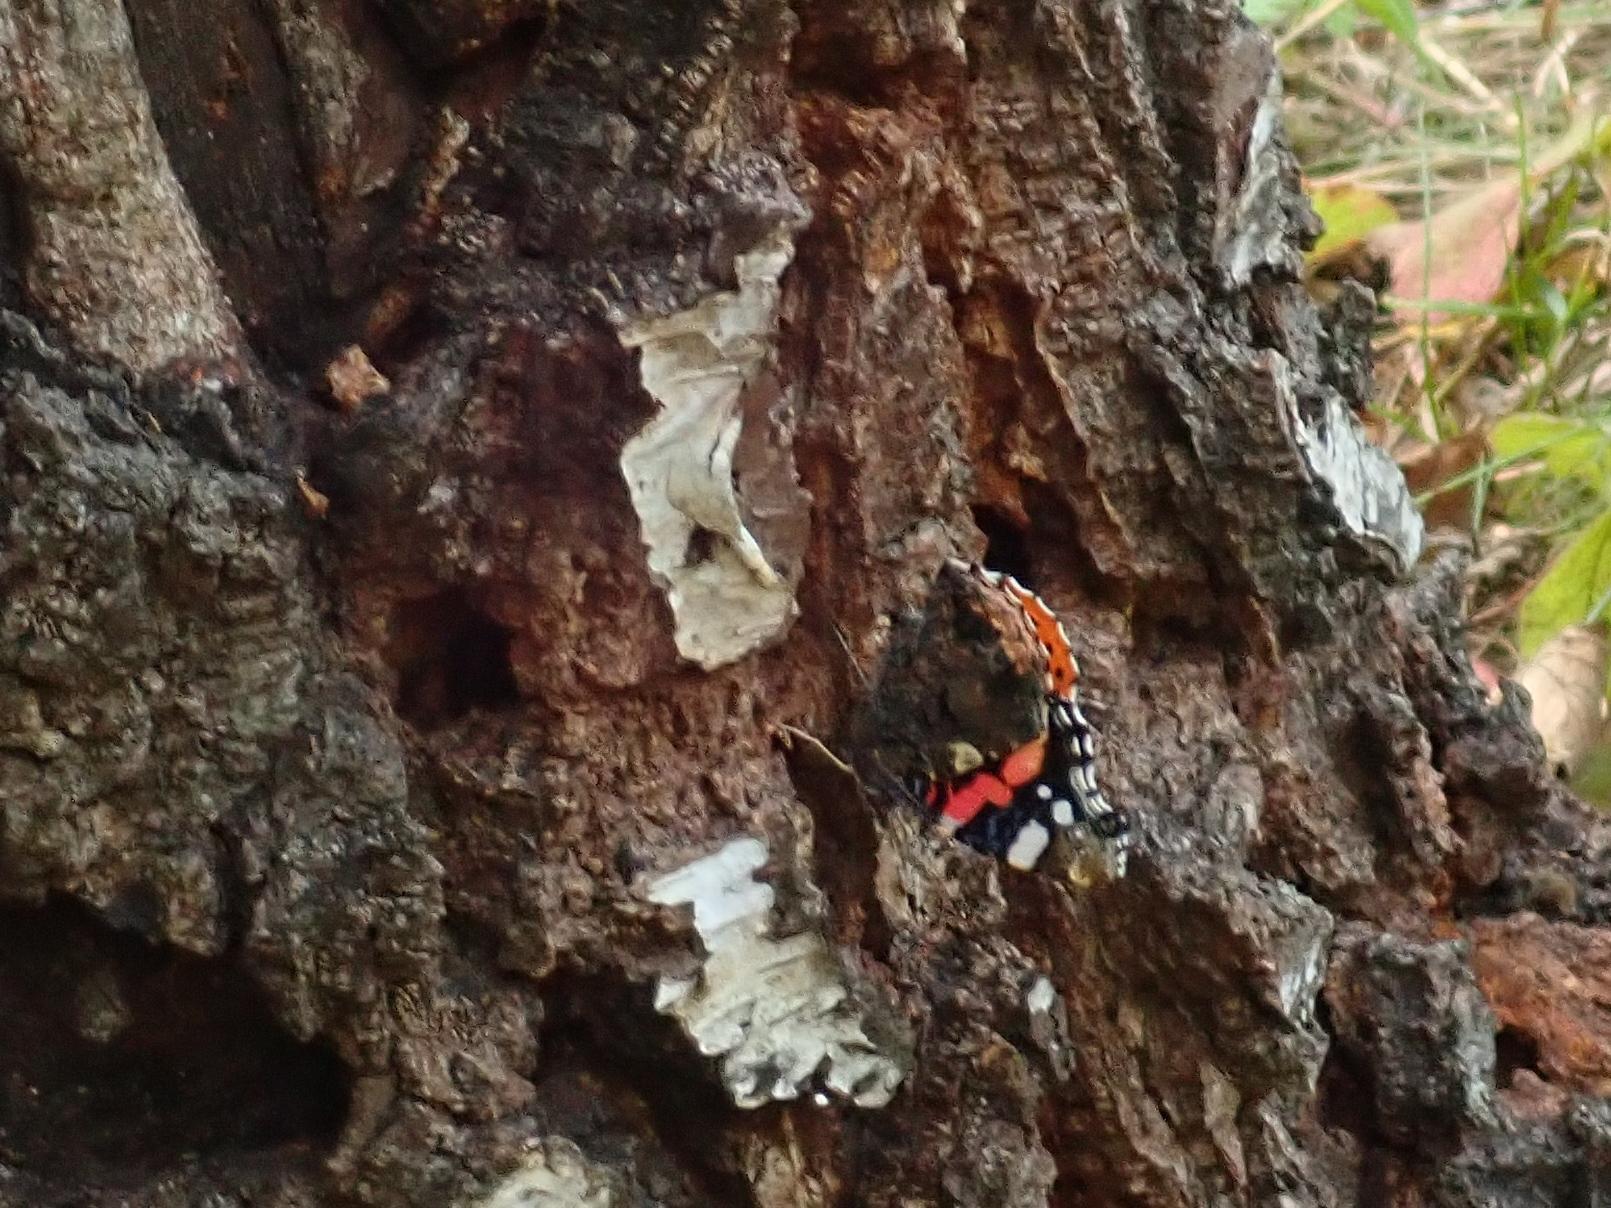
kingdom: Animalia
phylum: Arthropoda
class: Insecta
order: Lepidoptera
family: Nymphalidae
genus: Vanessa
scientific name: Vanessa atalanta
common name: Red admiral
